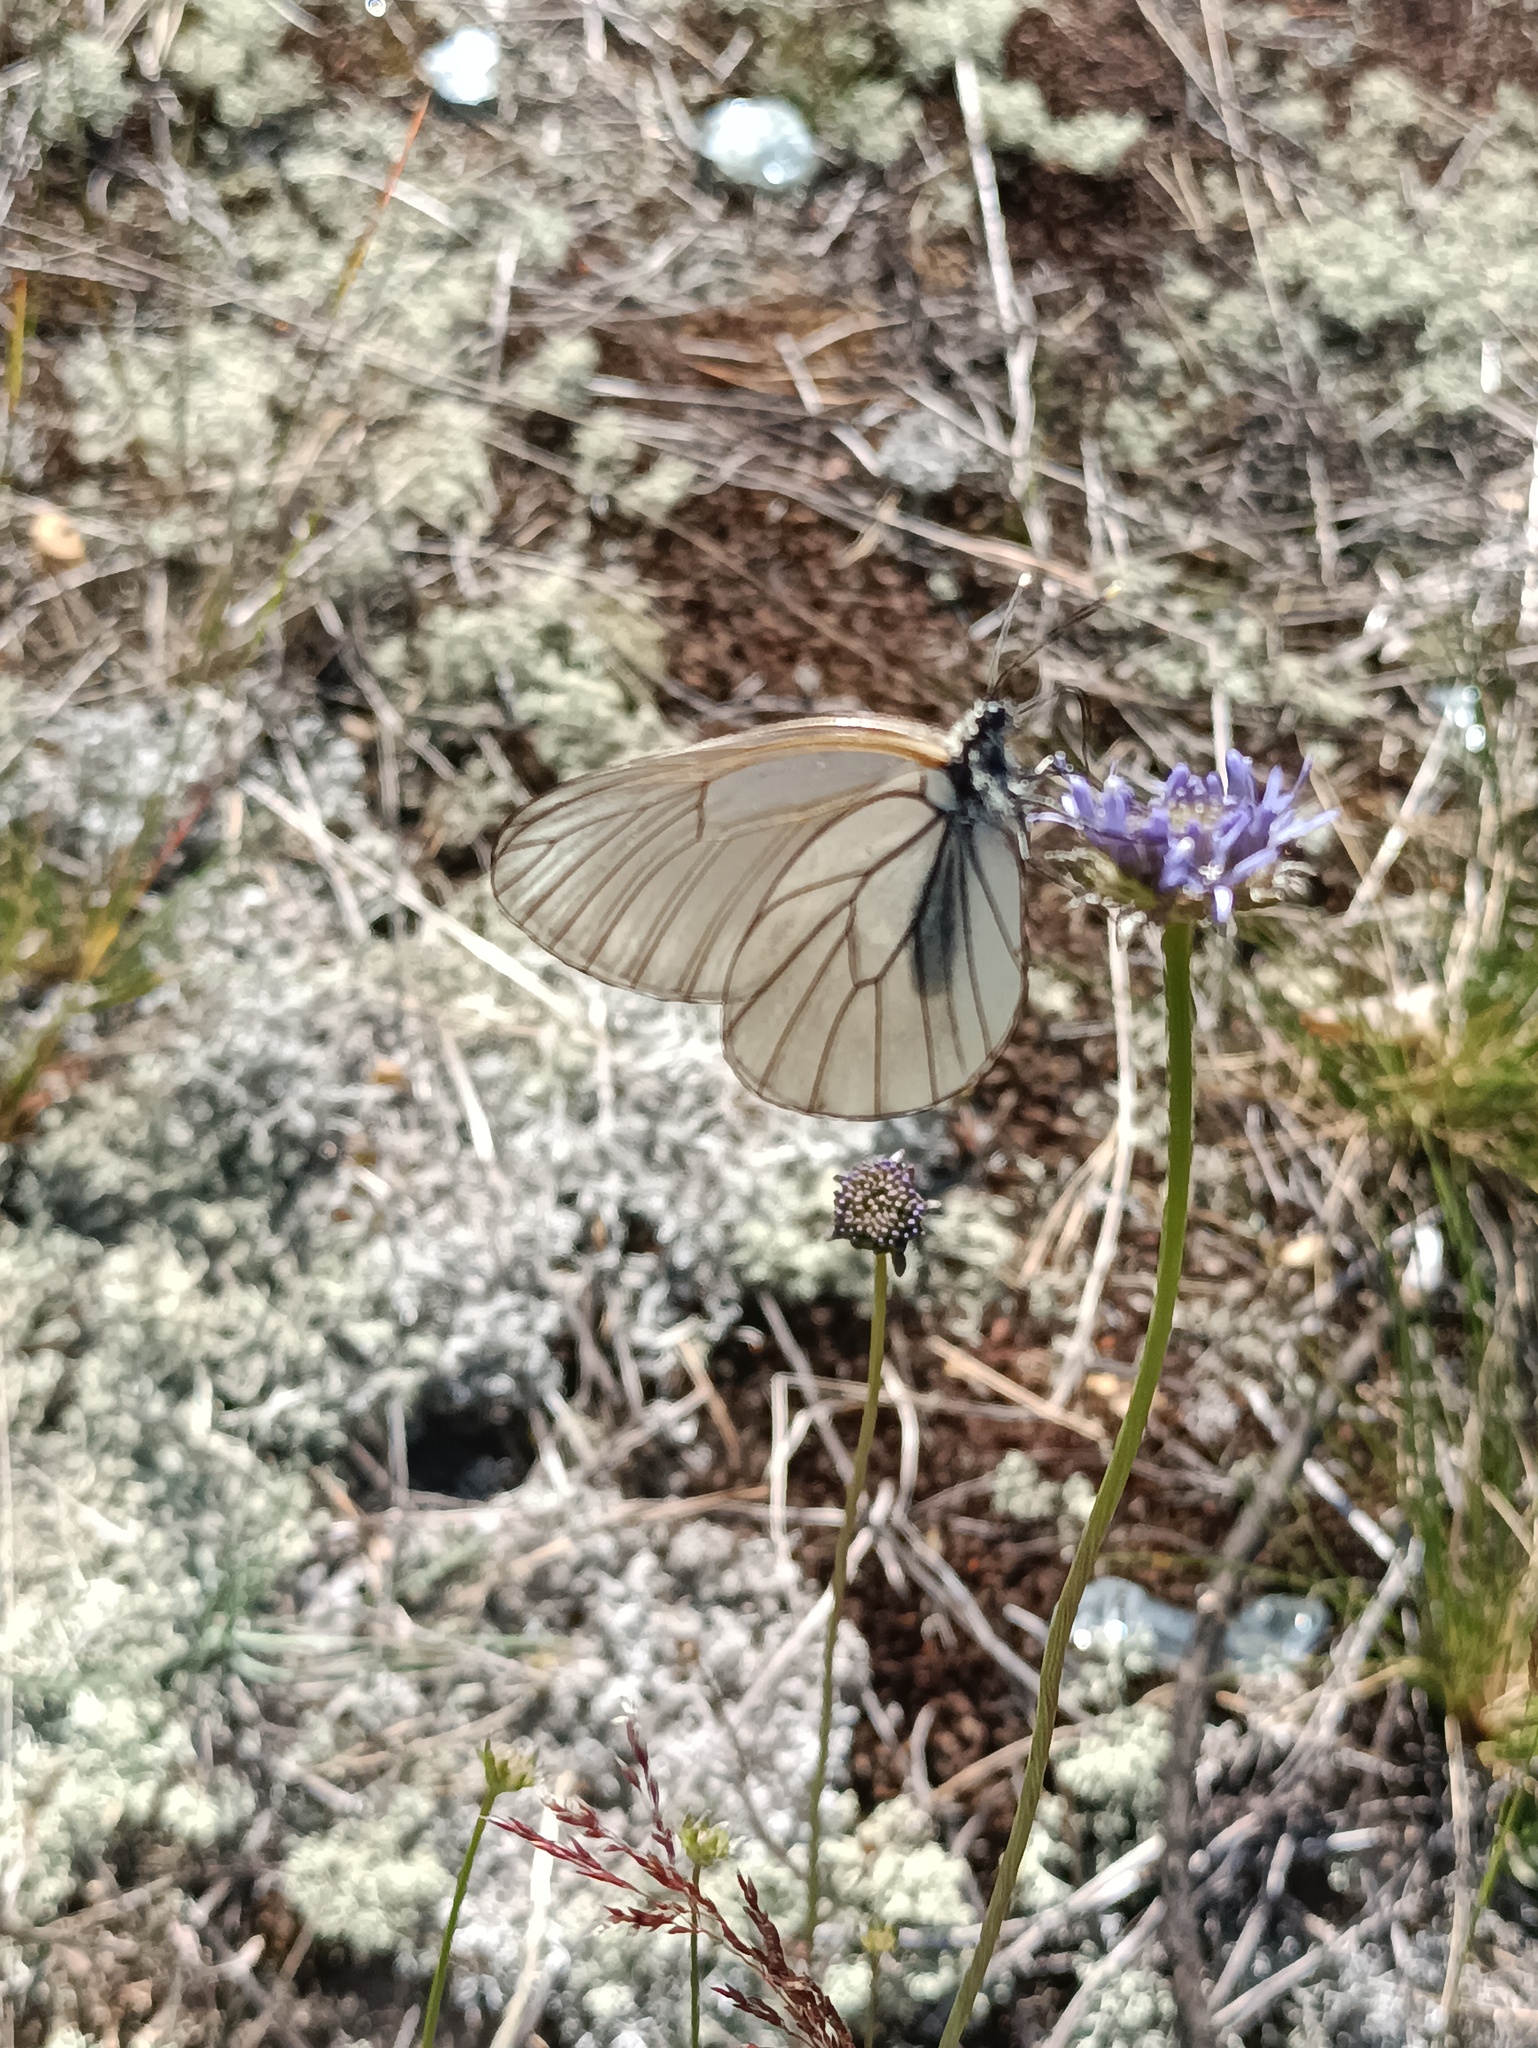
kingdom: Animalia
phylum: Arthropoda
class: Insecta
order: Lepidoptera
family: Pieridae
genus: Aporia
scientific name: Aporia crataegi
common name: Black-veined white
